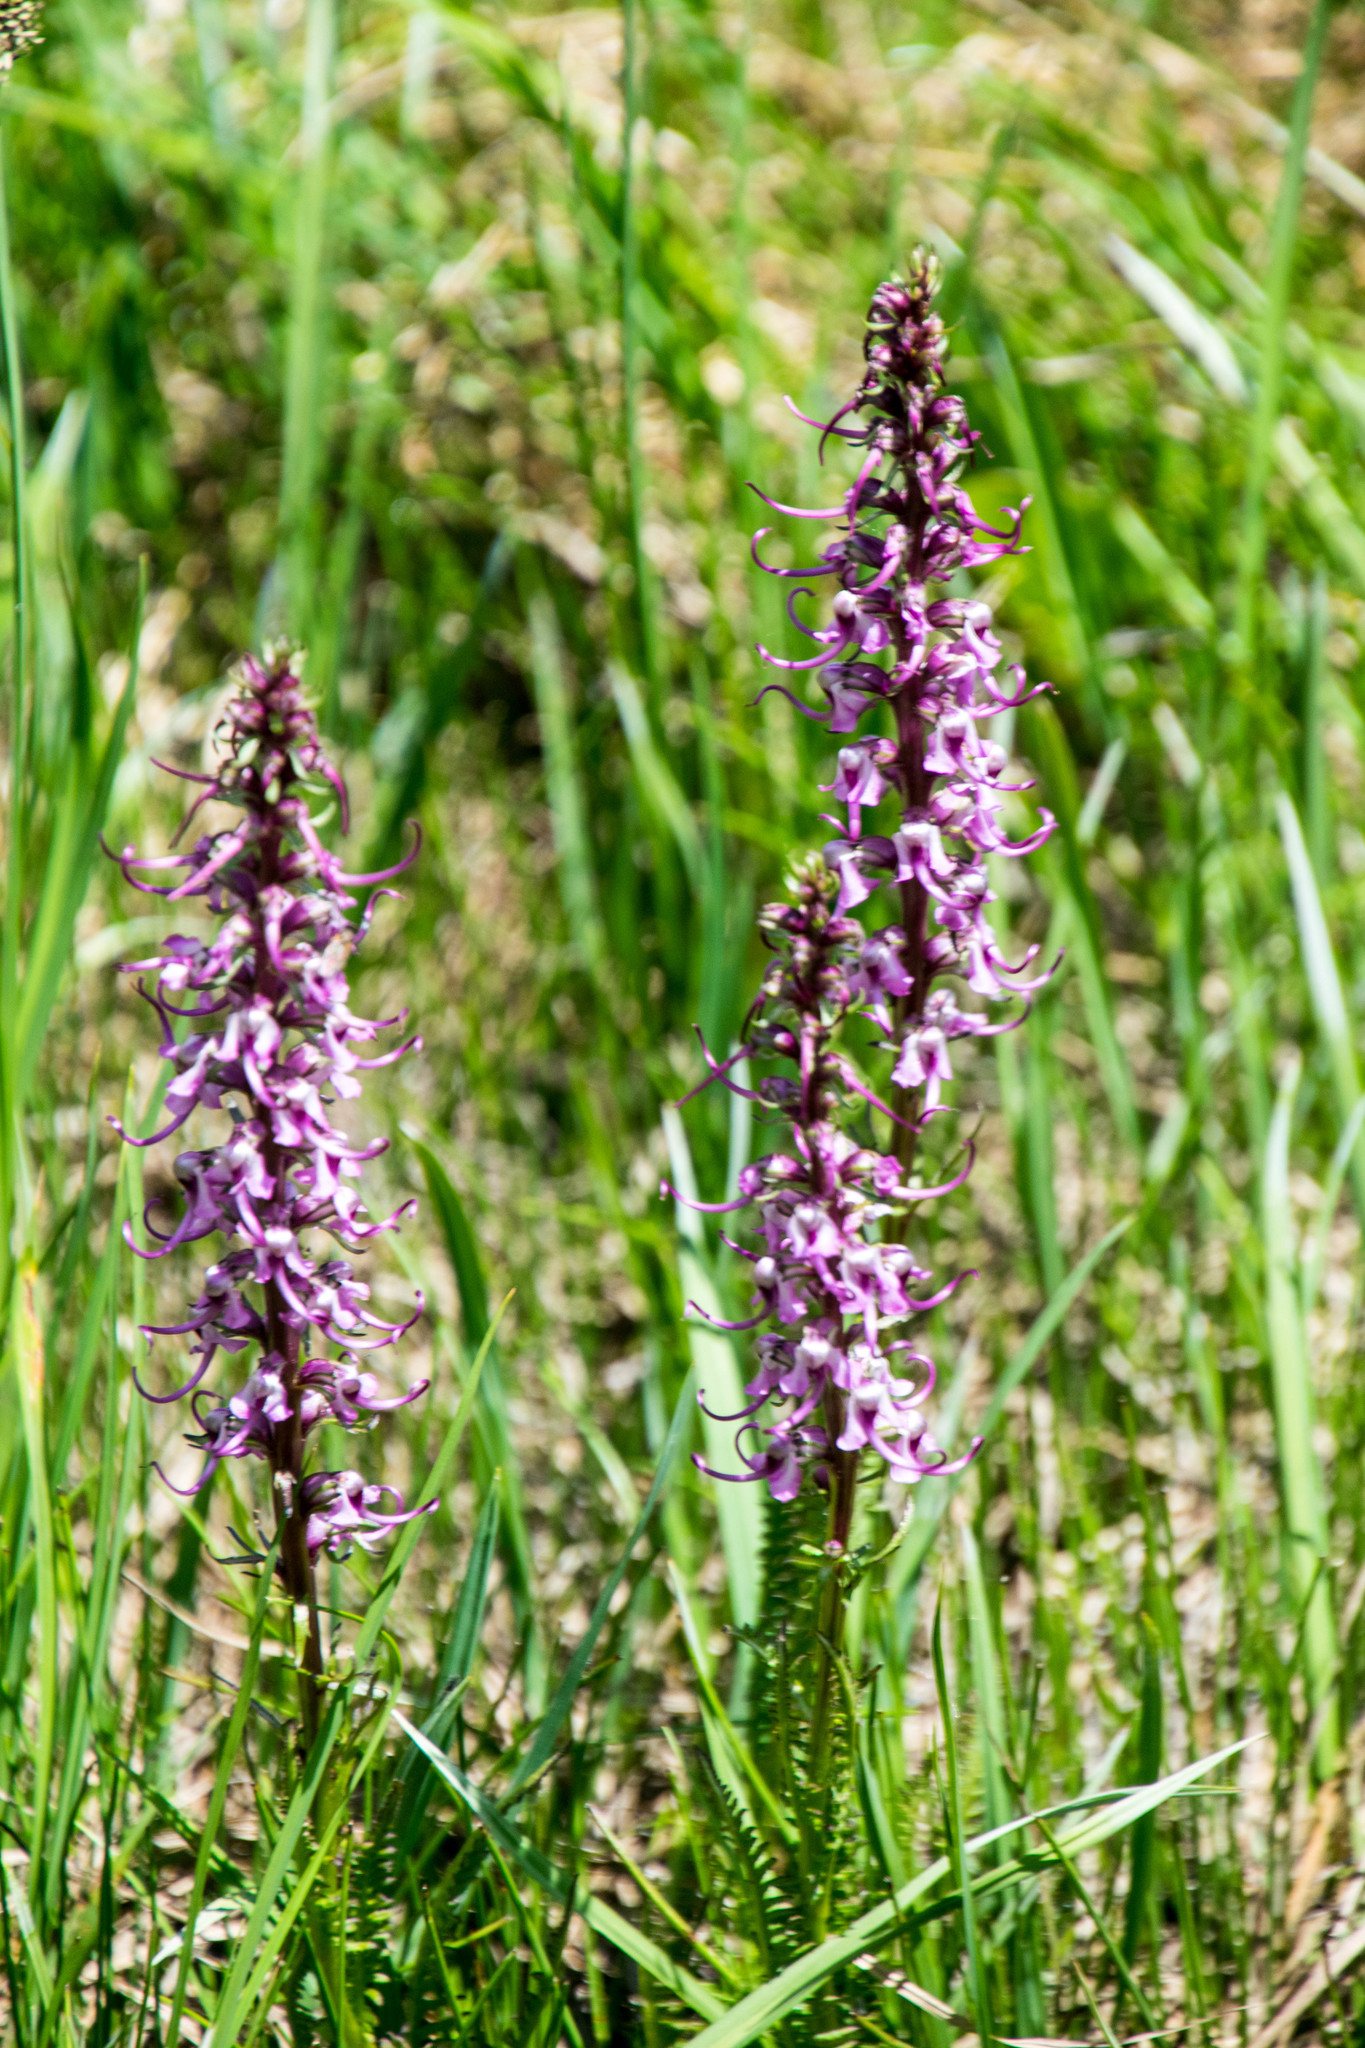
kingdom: Plantae
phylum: Tracheophyta
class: Magnoliopsida
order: Lamiales
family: Orobanchaceae
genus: Pedicularis
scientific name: Pedicularis groenlandica
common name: Elephant's-head
